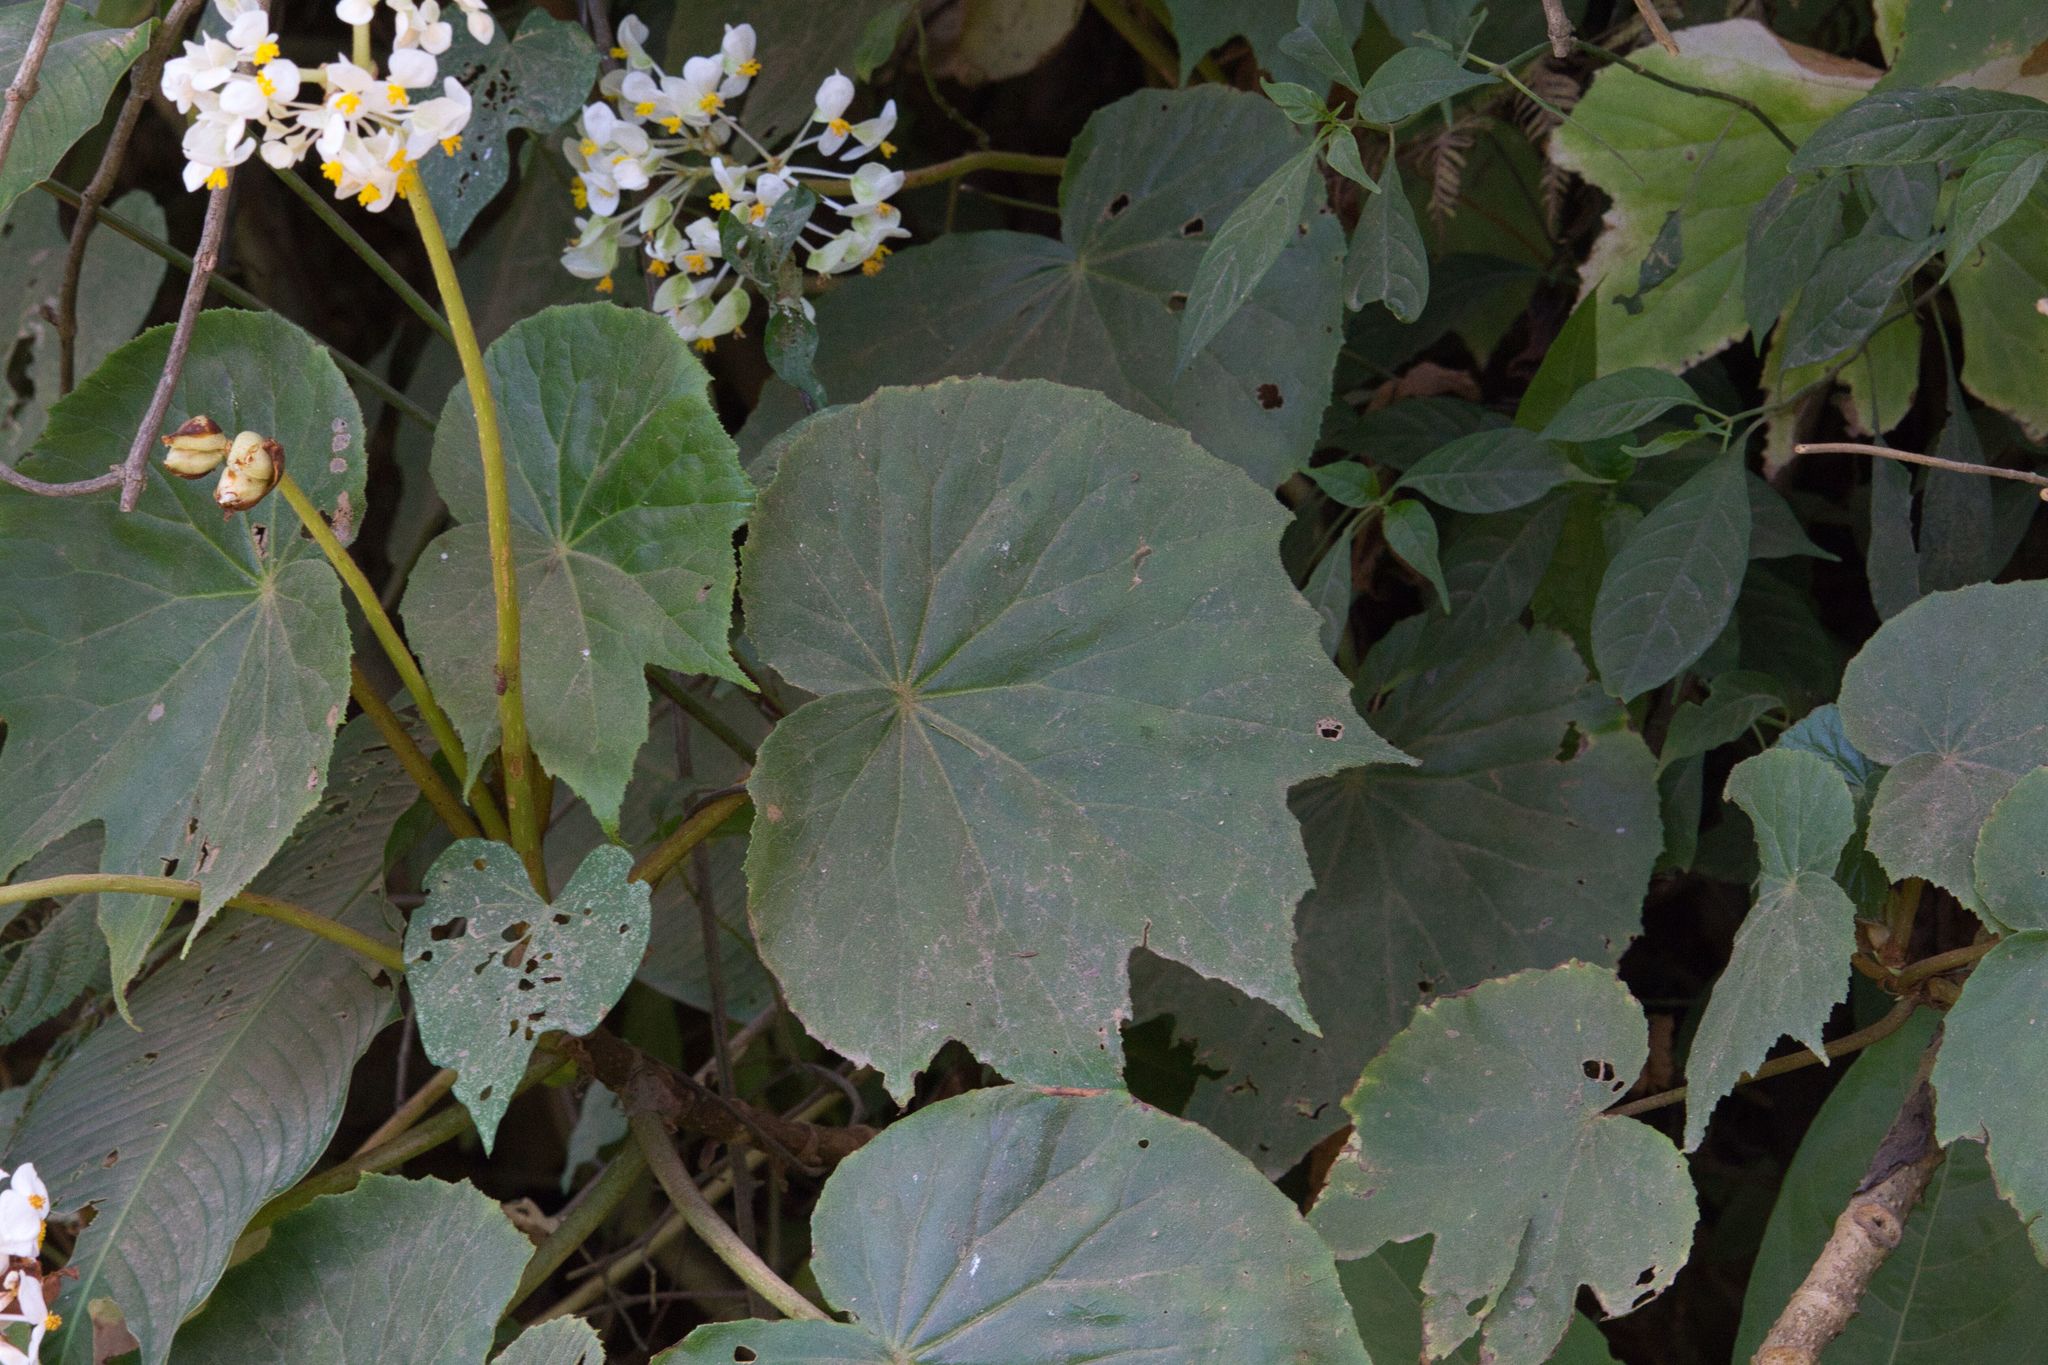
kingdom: Plantae
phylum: Tracheophyta
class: Magnoliopsida
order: Cucurbitales
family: Begoniaceae
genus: Begonia
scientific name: Begonia involucrata
